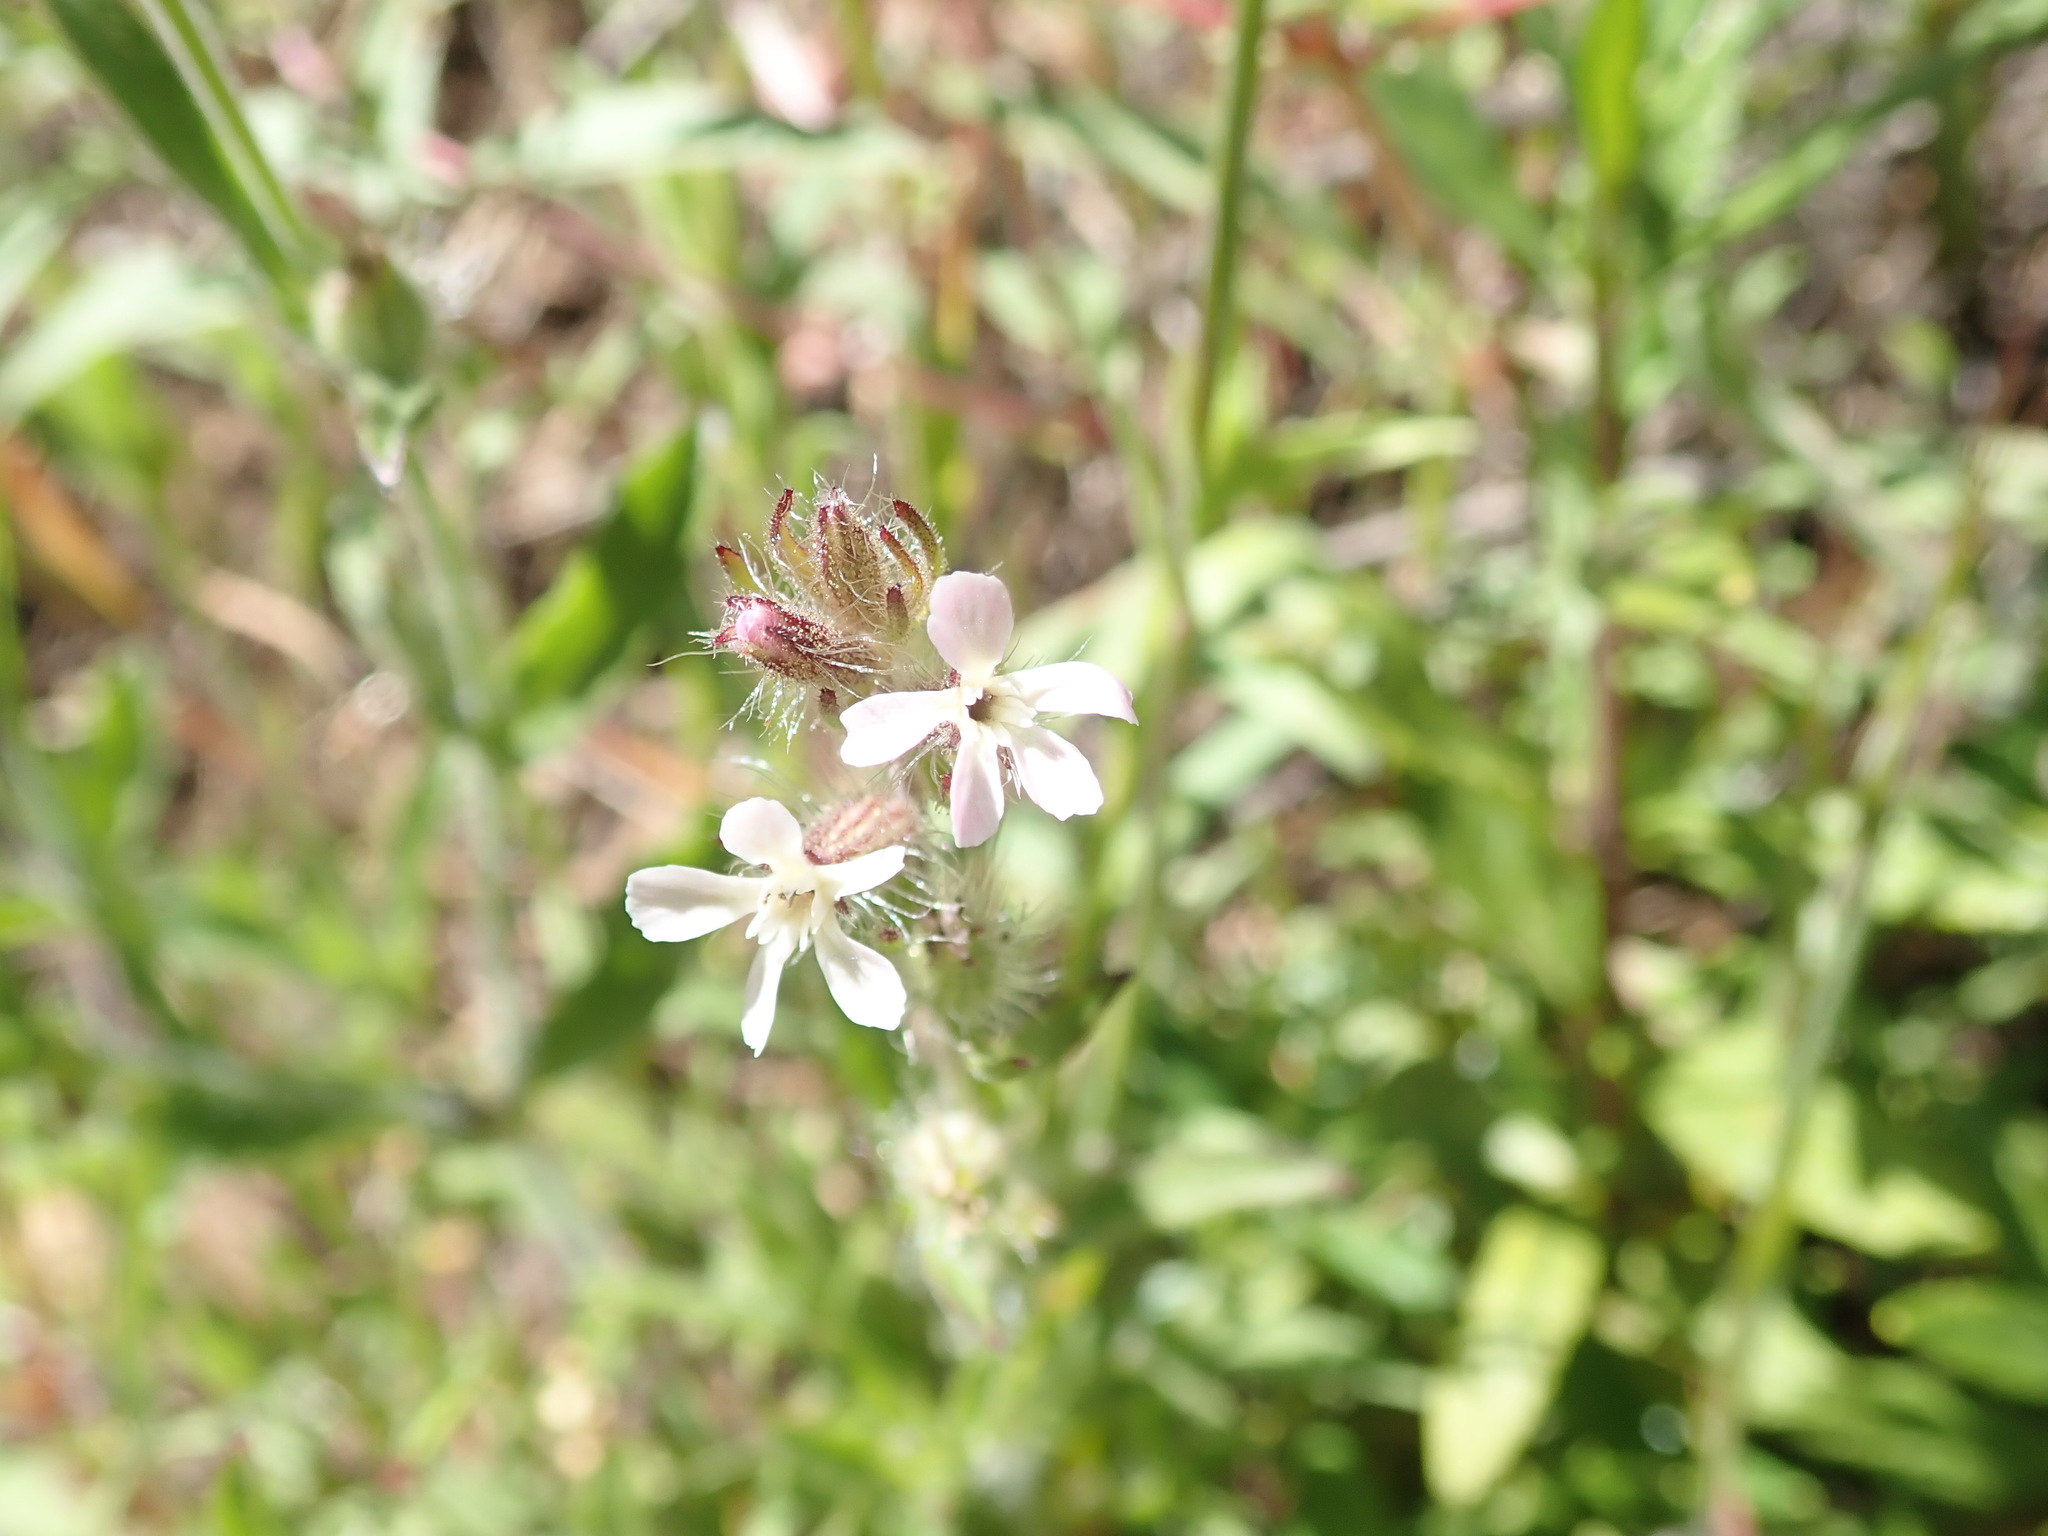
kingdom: Plantae
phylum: Tracheophyta
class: Magnoliopsida
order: Caryophyllales
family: Caryophyllaceae
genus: Silene
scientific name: Silene gallica
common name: Small-flowered catchfly
